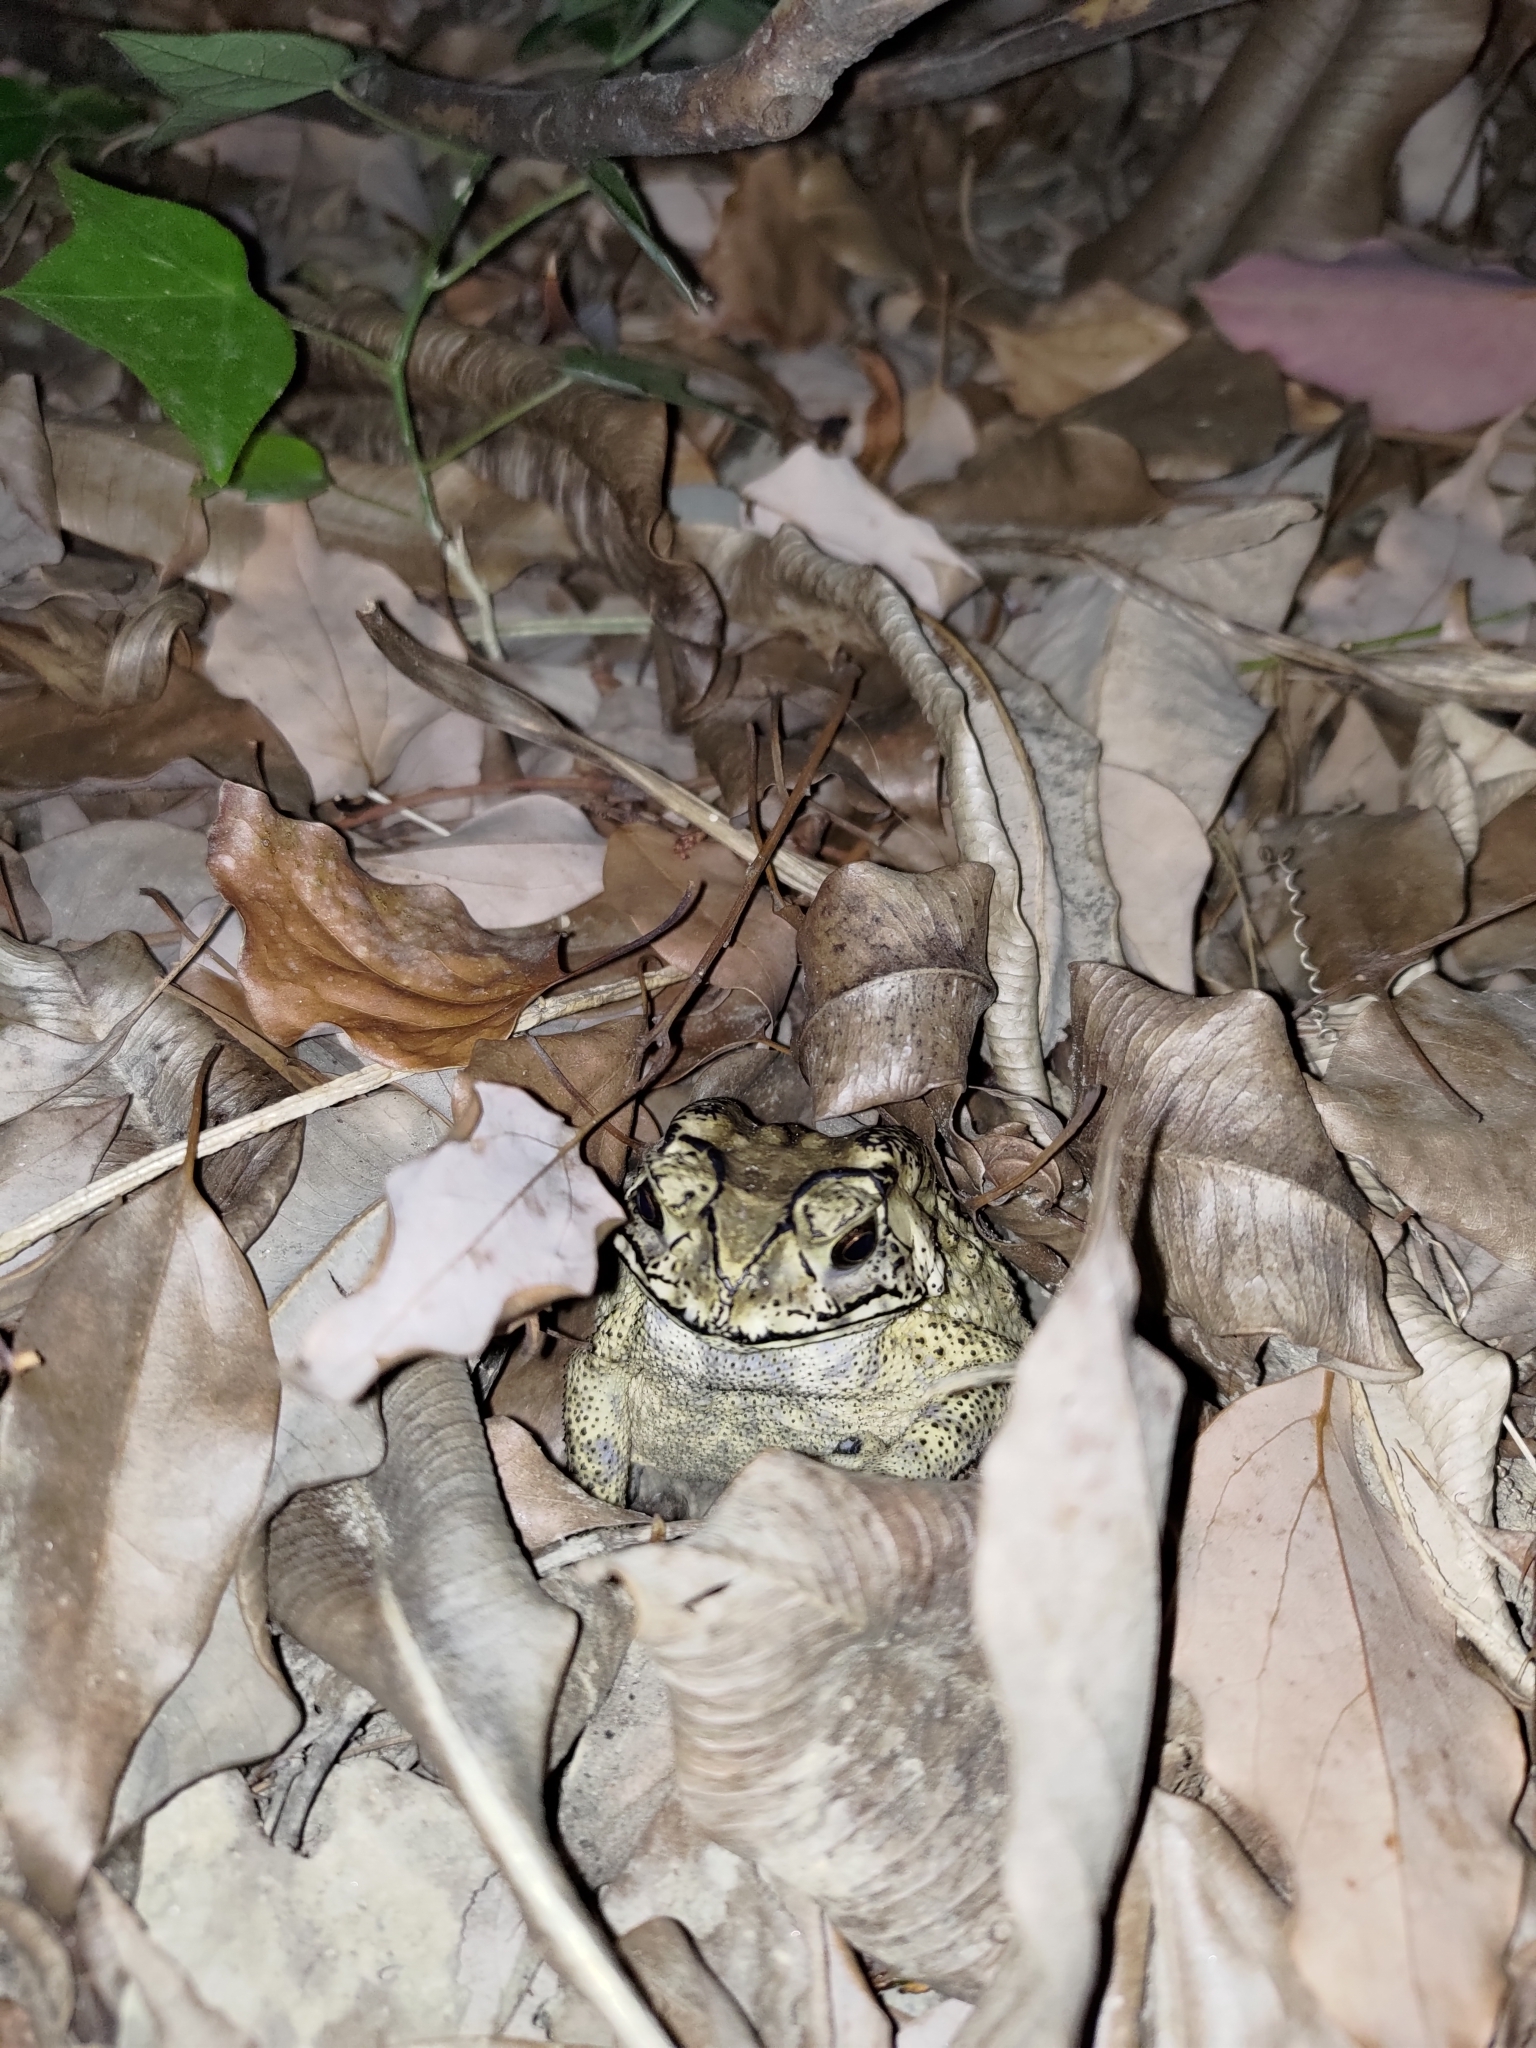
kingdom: Animalia
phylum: Chordata
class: Amphibia
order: Anura
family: Bufonidae
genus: Duttaphrynus
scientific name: Duttaphrynus melanostictus
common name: Common sunda toad
